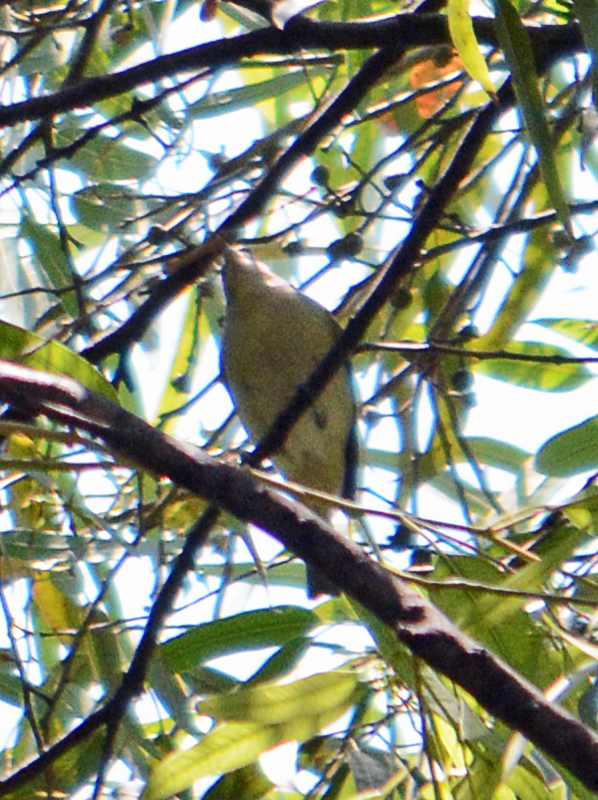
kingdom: Animalia
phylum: Chordata
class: Aves
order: Passeriformes
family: Vireonidae
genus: Vireo
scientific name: Vireo gilvus
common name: Warbling vireo
